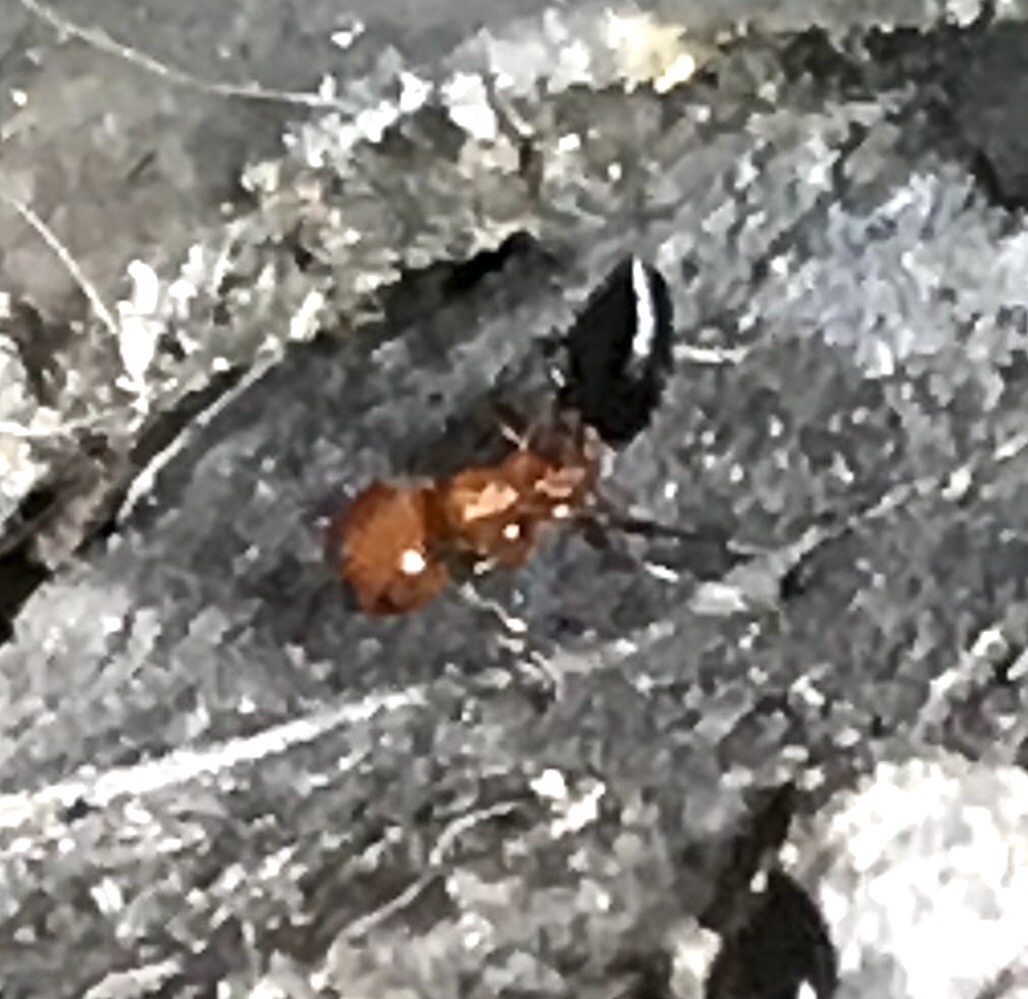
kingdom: Animalia
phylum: Arthropoda
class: Insecta
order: Hymenoptera
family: Formicidae
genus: Crematogaster
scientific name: Crematogaster laeviuscula
